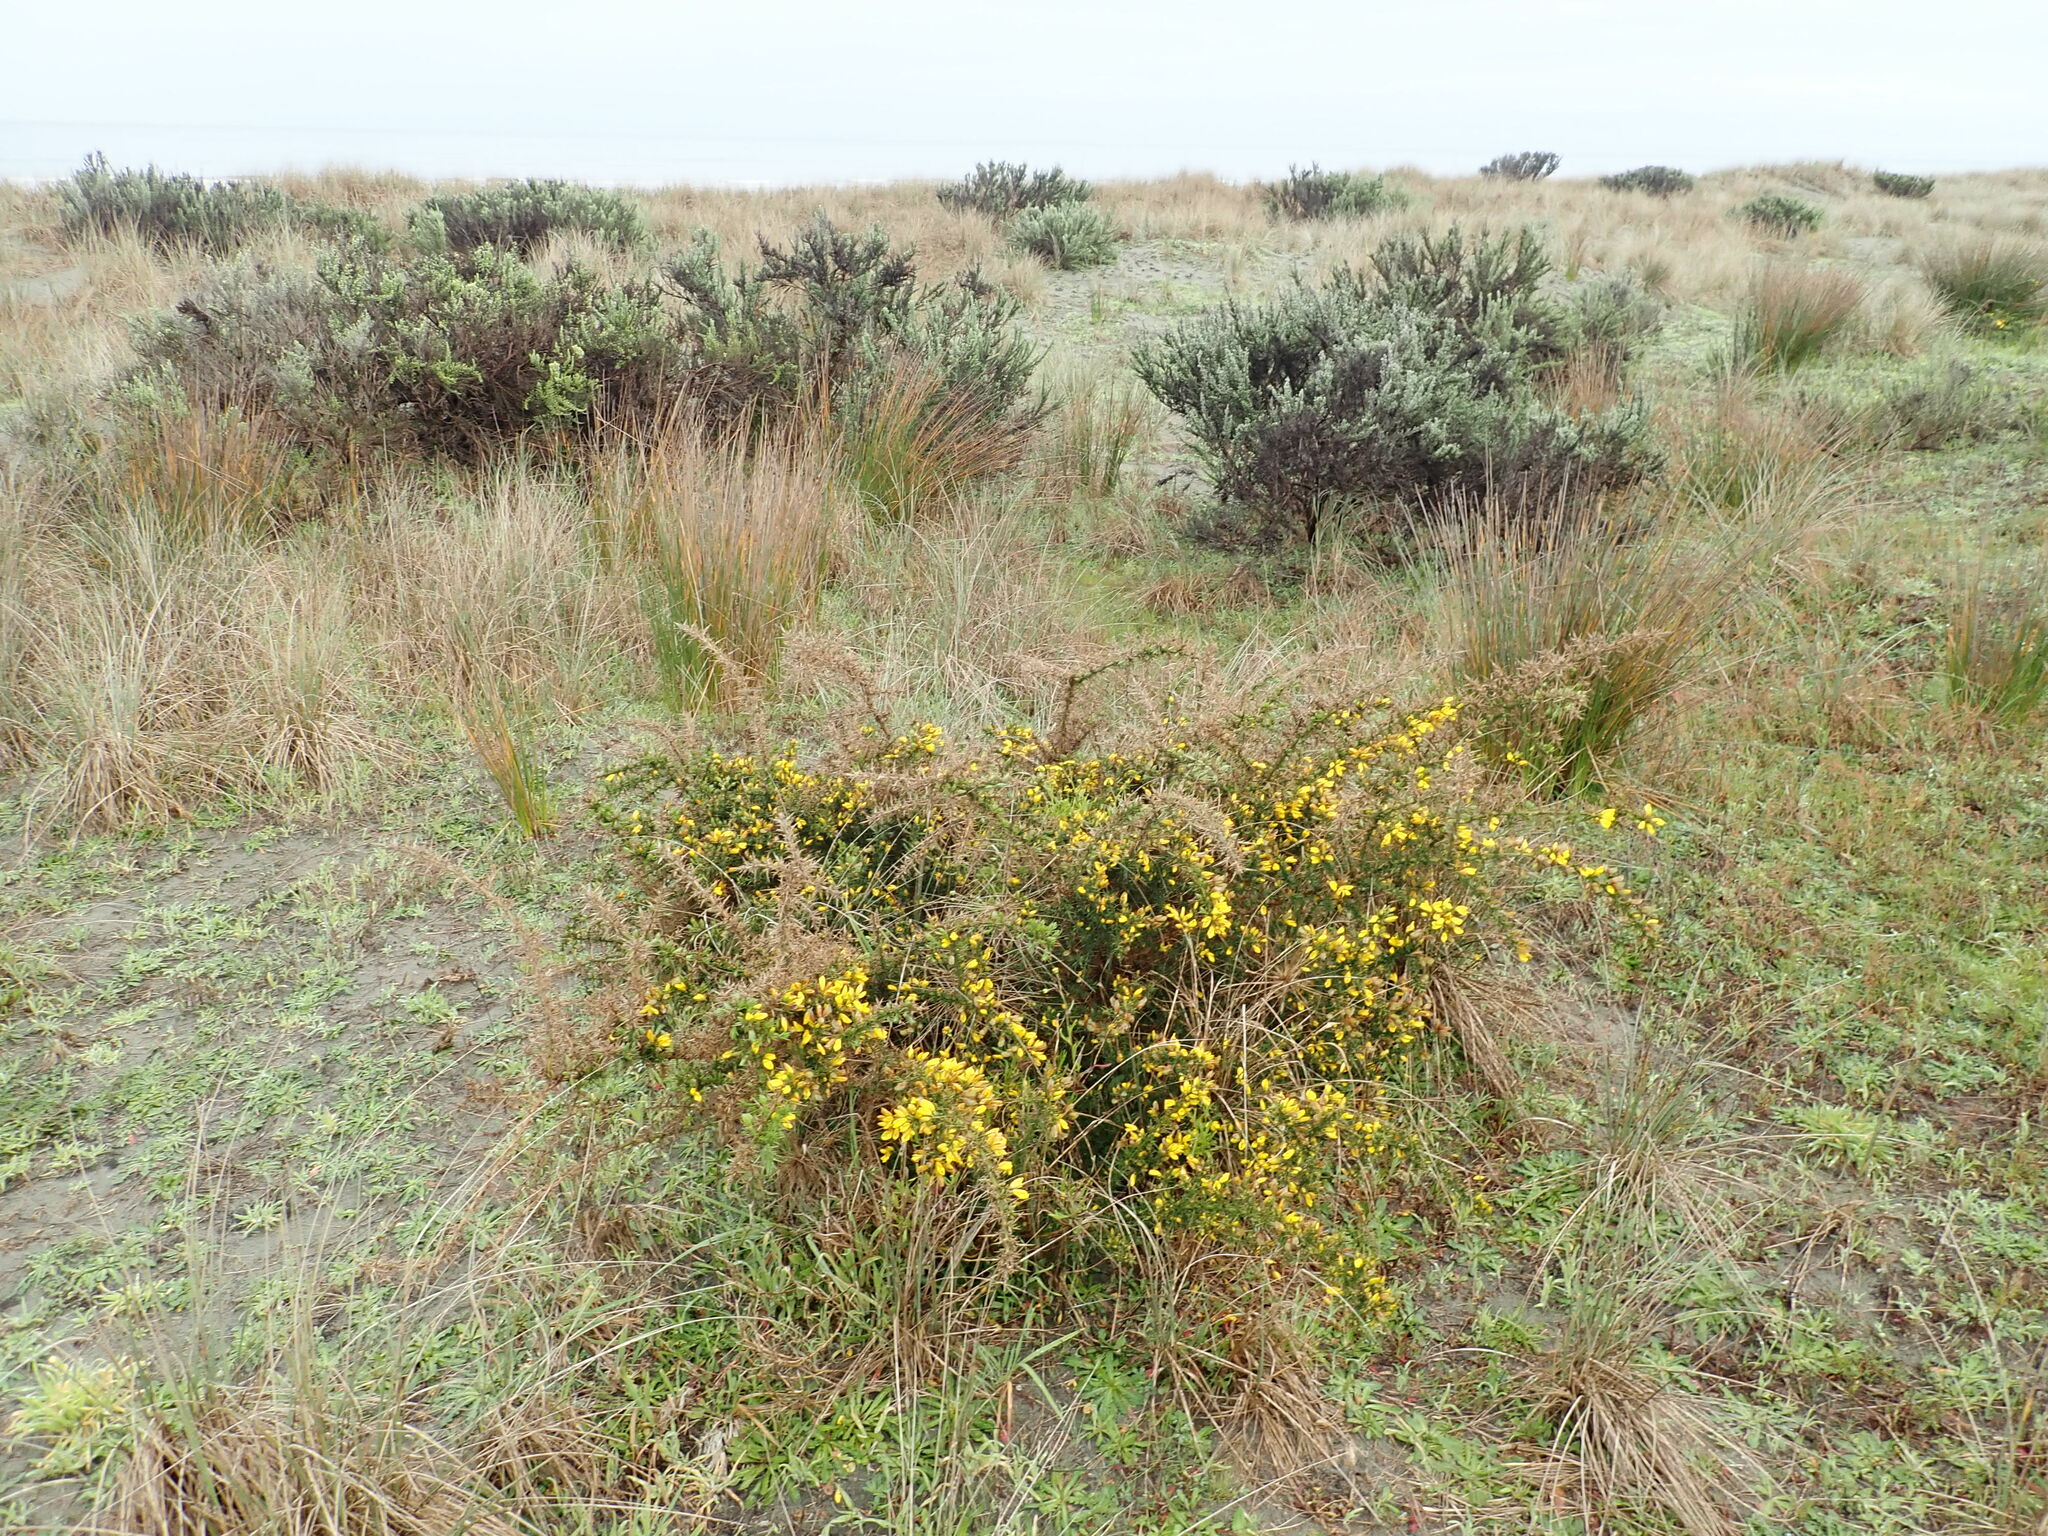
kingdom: Plantae
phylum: Tracheophyta
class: Magnoliopsida
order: Fabales
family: Fabaceae
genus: Ulex
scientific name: Ulex europaeus
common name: Common gorse
